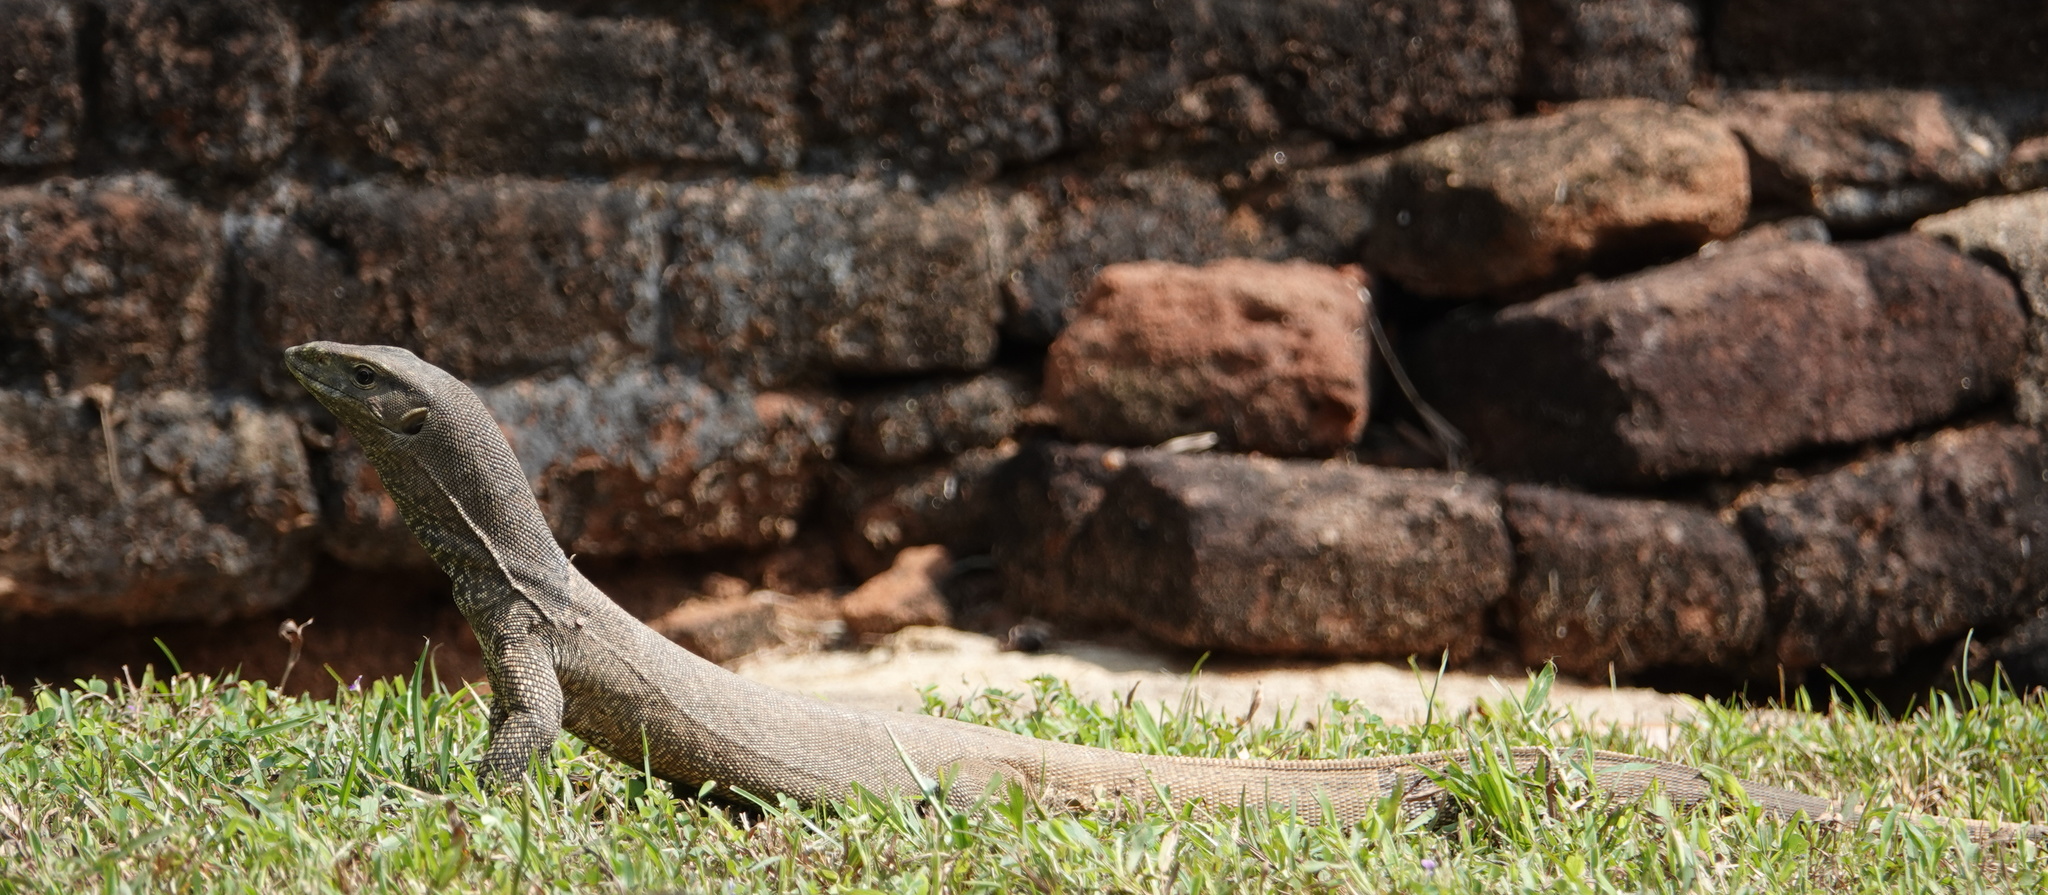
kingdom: Animalia
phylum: Chordata
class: Squamata
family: Varanidae
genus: Varanus
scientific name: Varanus bengalensis
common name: Bengal monitor
